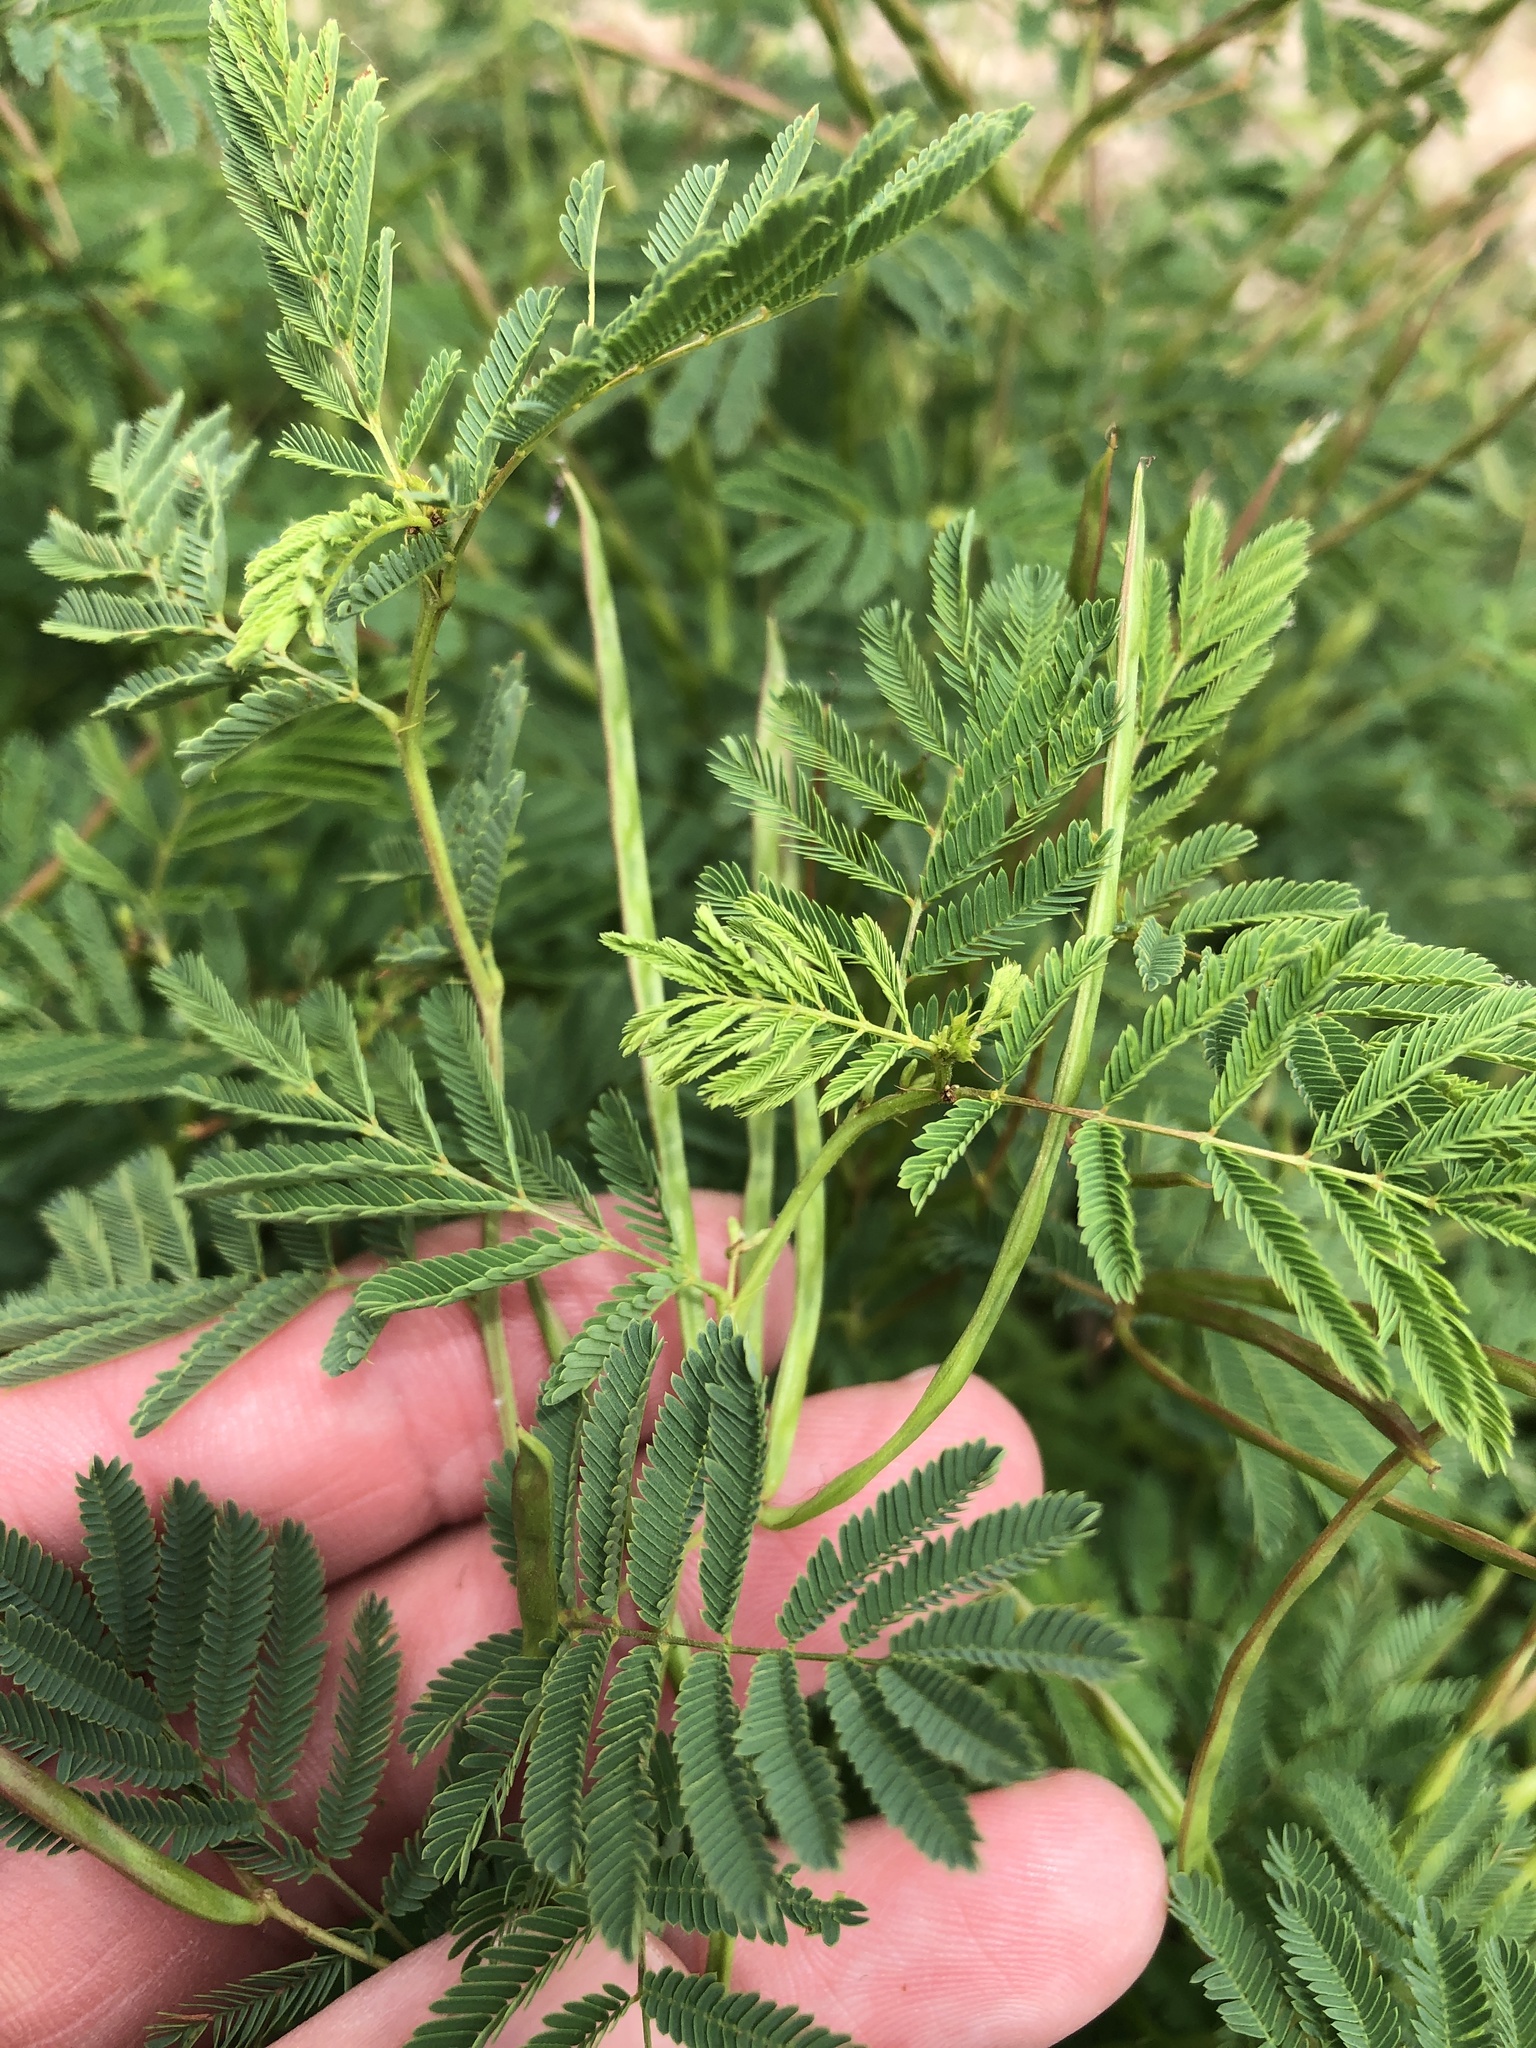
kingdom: Plantae
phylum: Tracheophyta
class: Magnoliopsida
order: Fabales
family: Fabaceae
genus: Desmanthus
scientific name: Desmanthus leptolobus
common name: Prairie-mimosa
